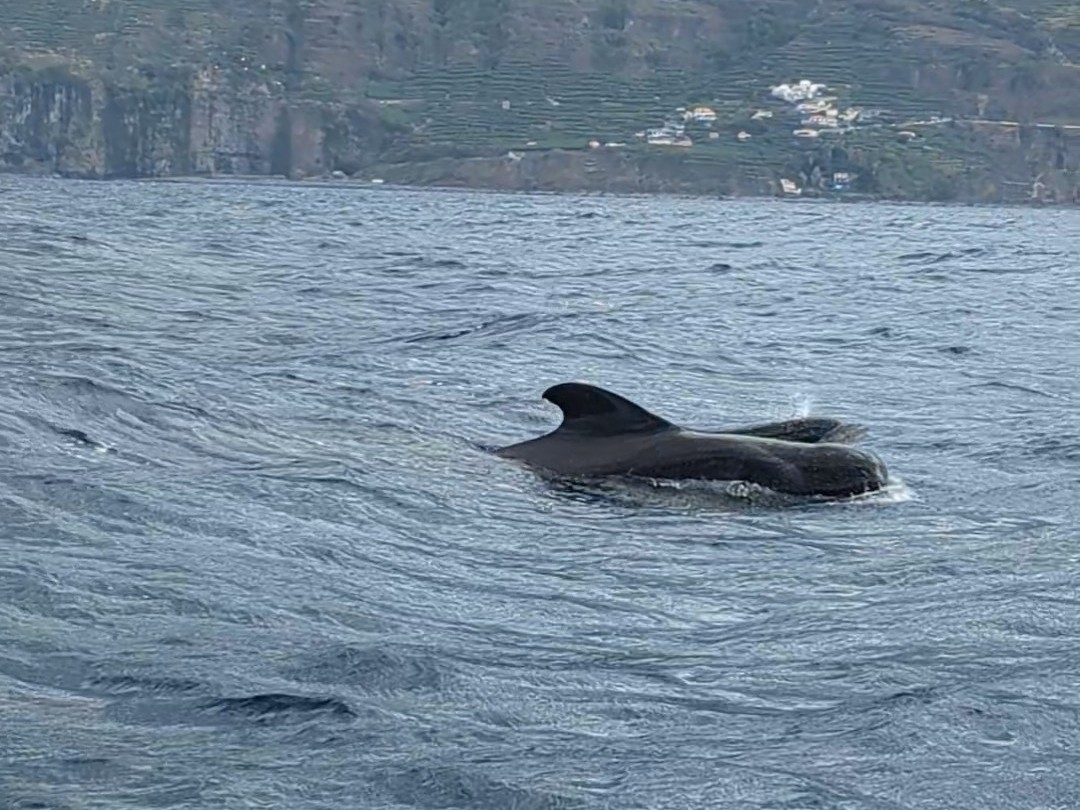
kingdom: Animalia
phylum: Chordata
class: Mammalia
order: Cetacea
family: Delphinidae
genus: Globicephala
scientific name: Globicephala macrorhynchus
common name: Short-finned pilot whale
